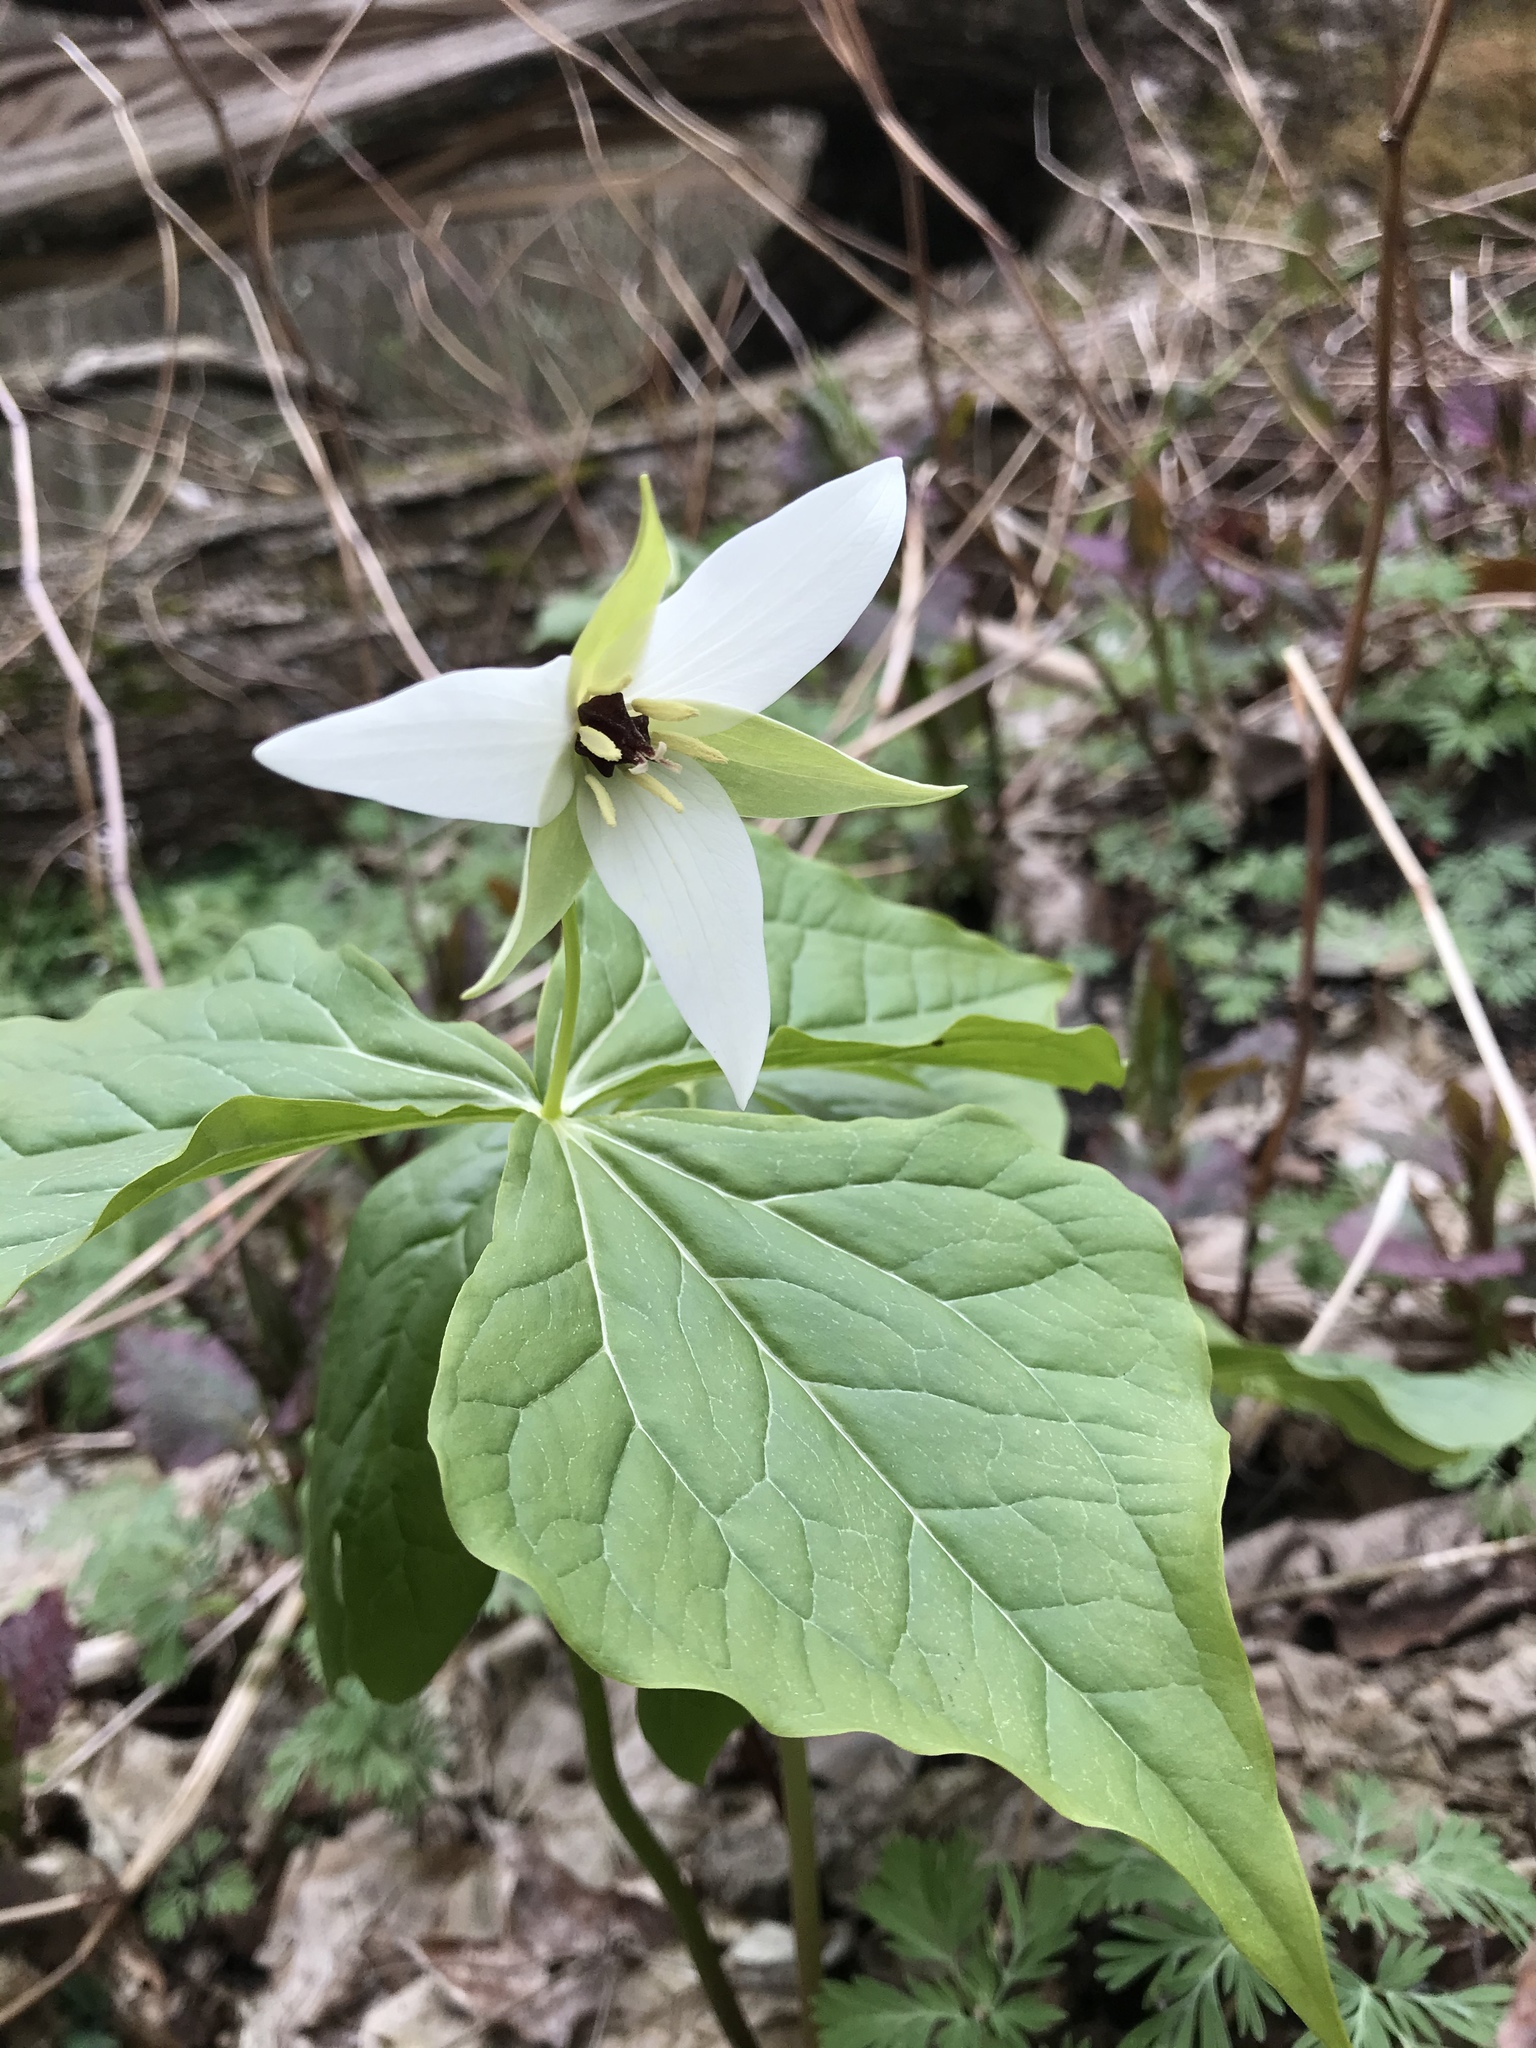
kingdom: Plantae
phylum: Tracheophyta
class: Liliopsida
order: Liliales
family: Melanthiaceae
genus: Trillium
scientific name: Trillium erectum
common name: Purple trillium
